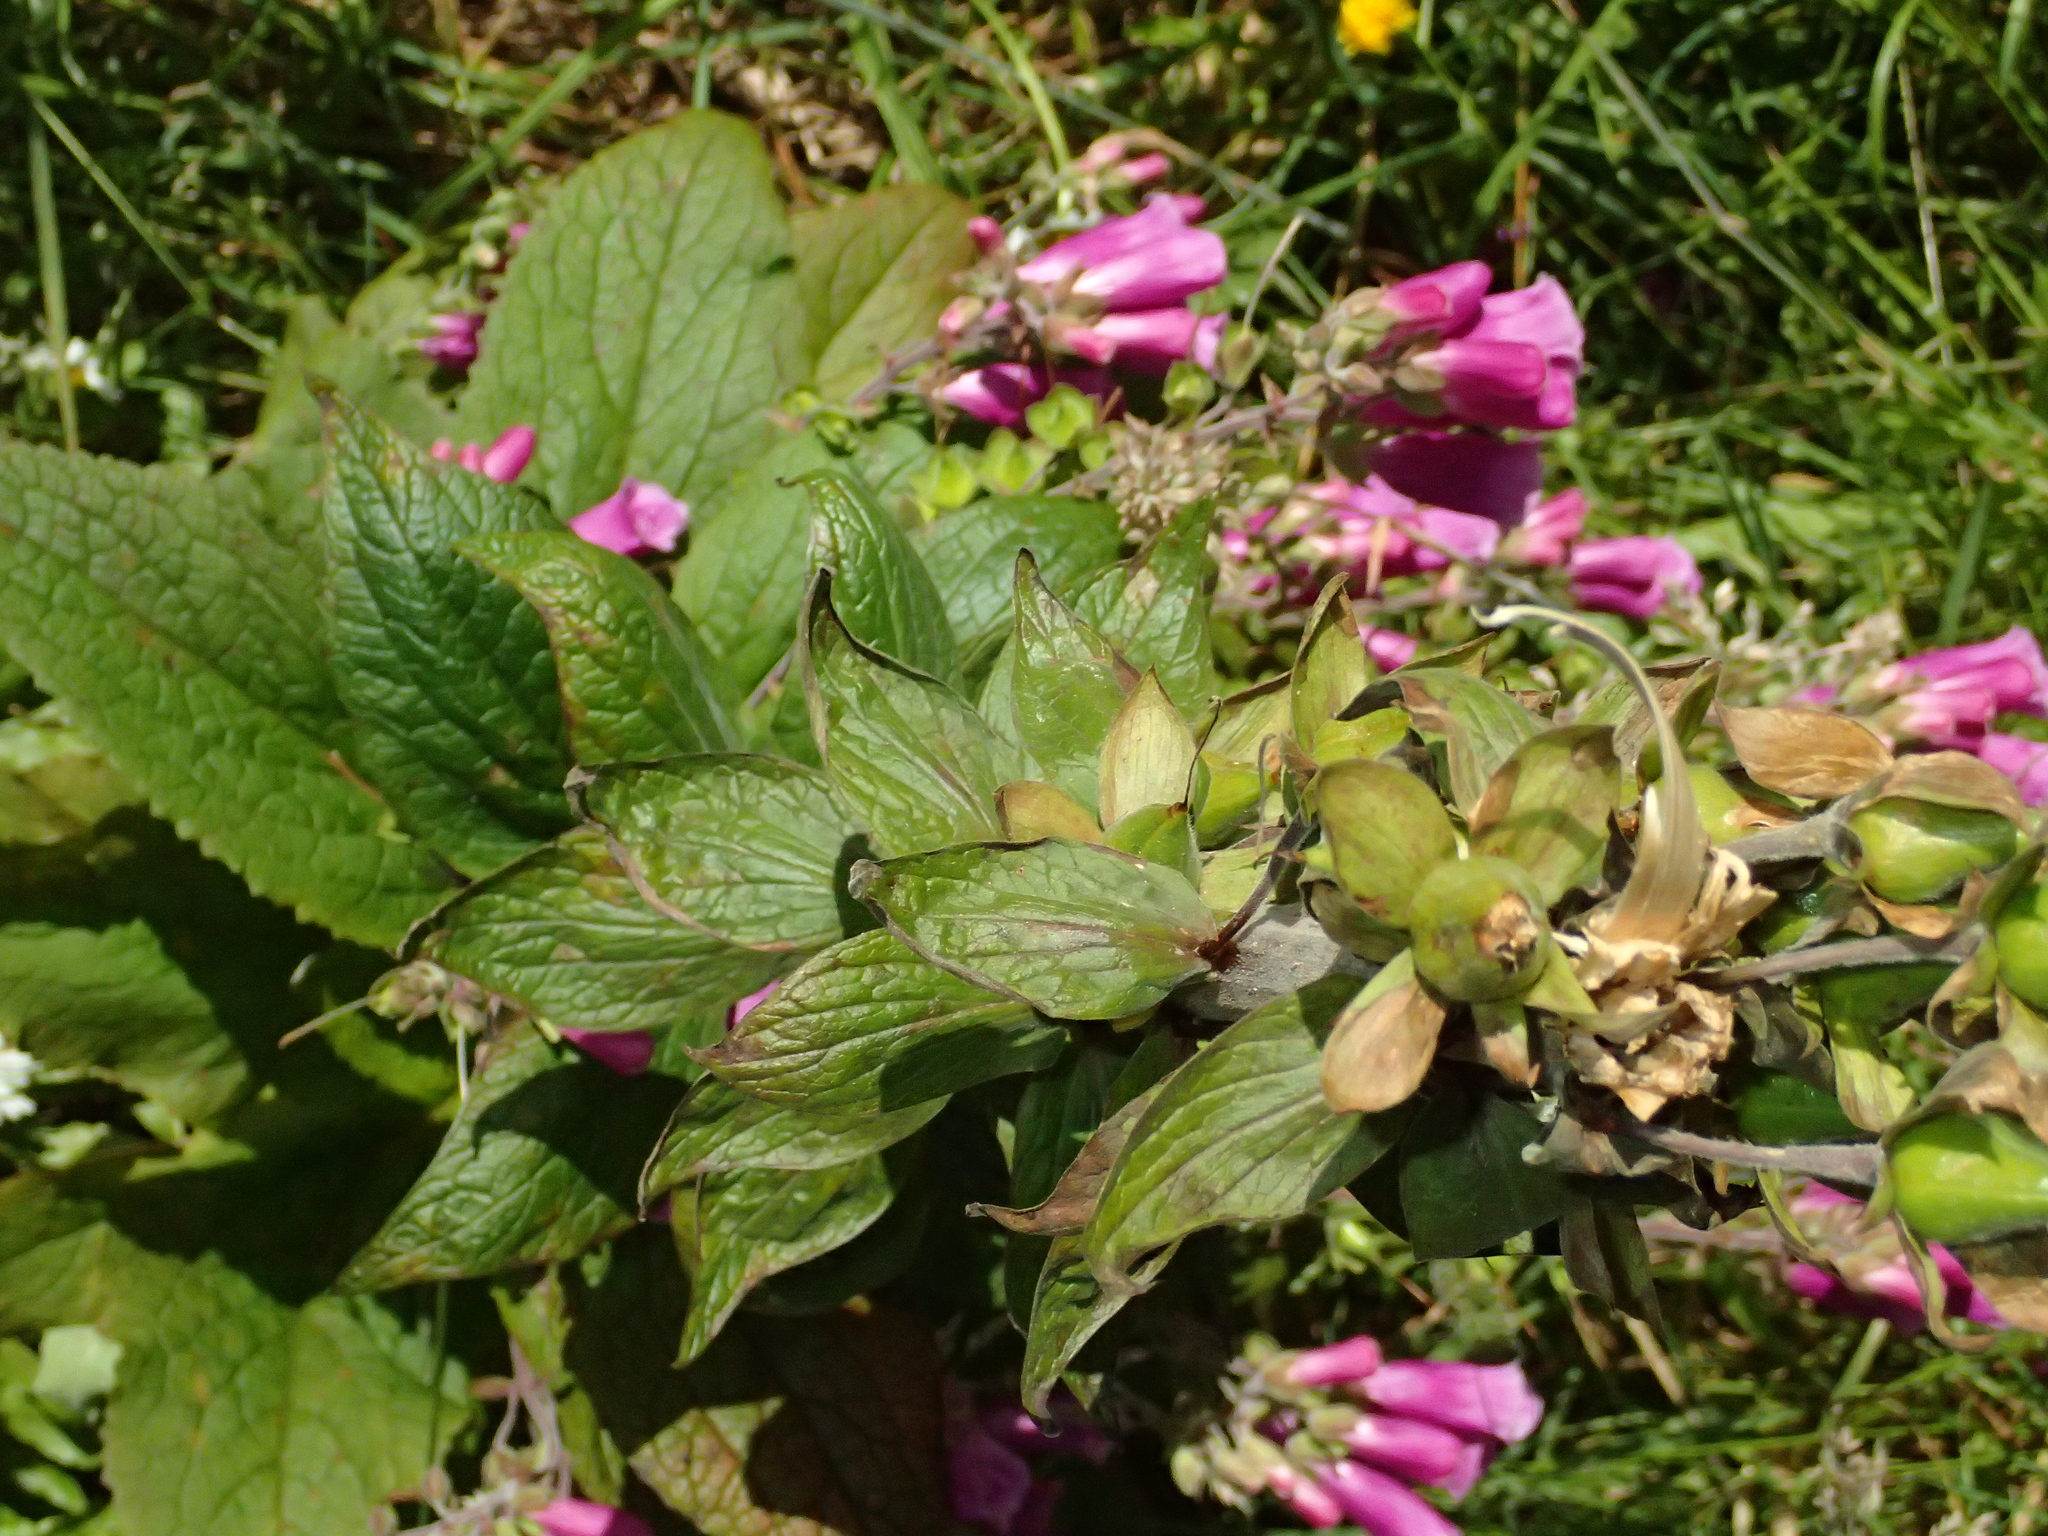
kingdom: Plantae
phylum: Tracheophyta
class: Magnoliopsida
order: Lamiales
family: Plantaginaceae
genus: Digitalis
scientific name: Digitalis purpurea
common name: Foxglove
